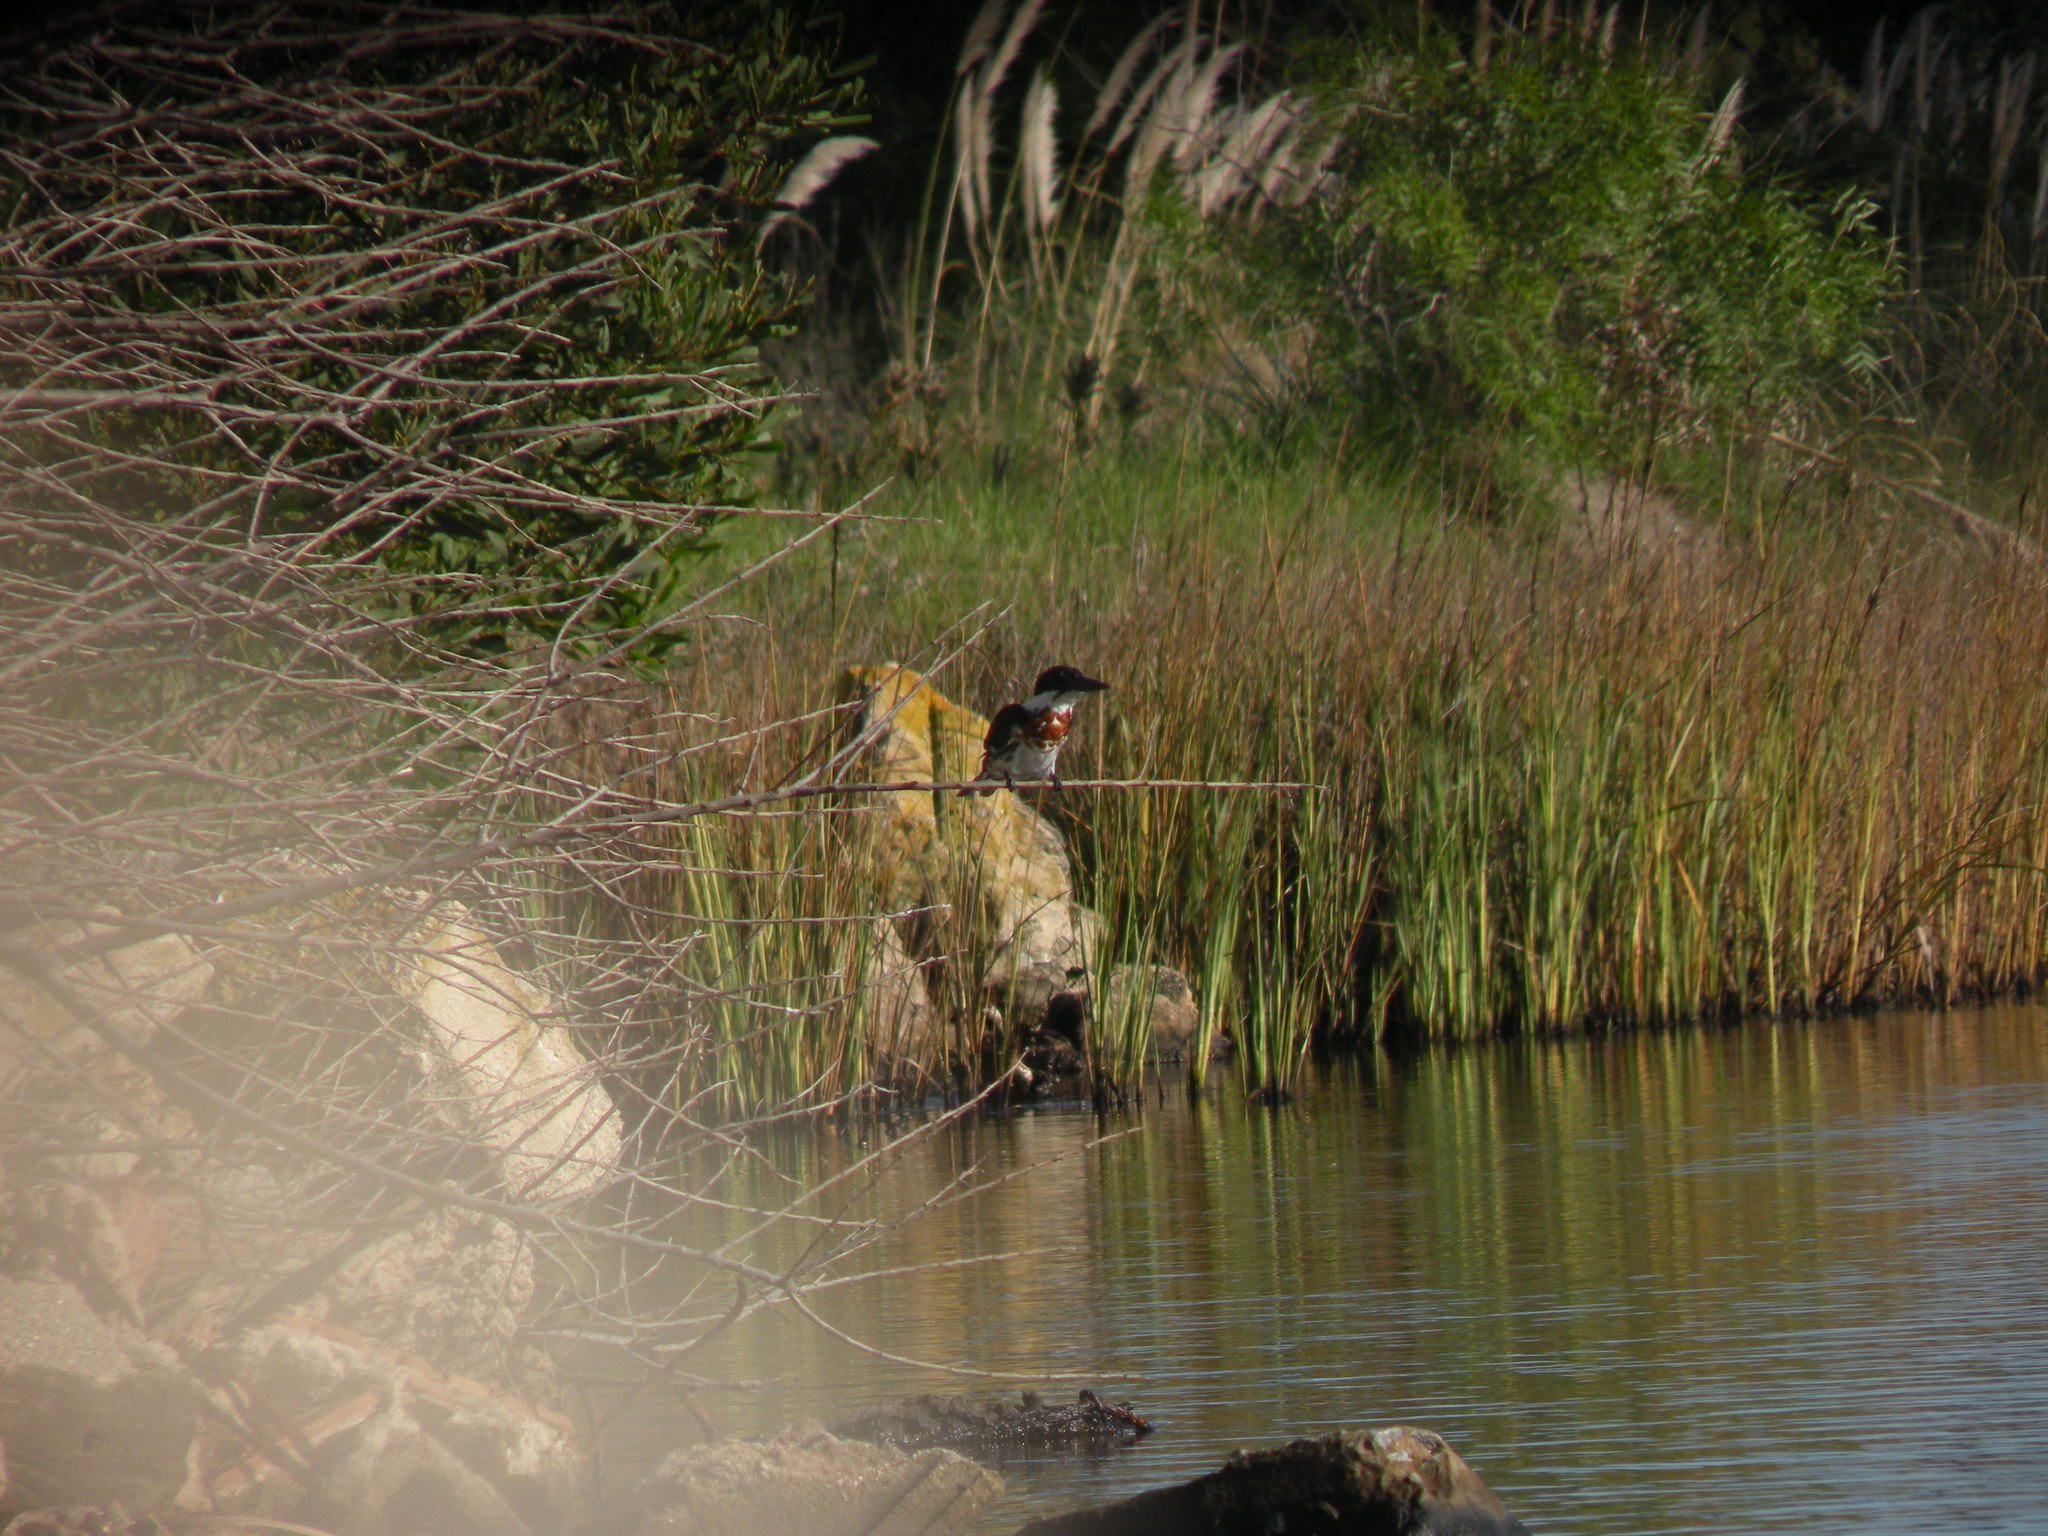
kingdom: Animalia
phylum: Chordata
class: Aves
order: Coraciiformes
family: Alcedinidae
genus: Chloroceryle
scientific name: Chloroceryle amazona
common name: Amazon kingfisher
